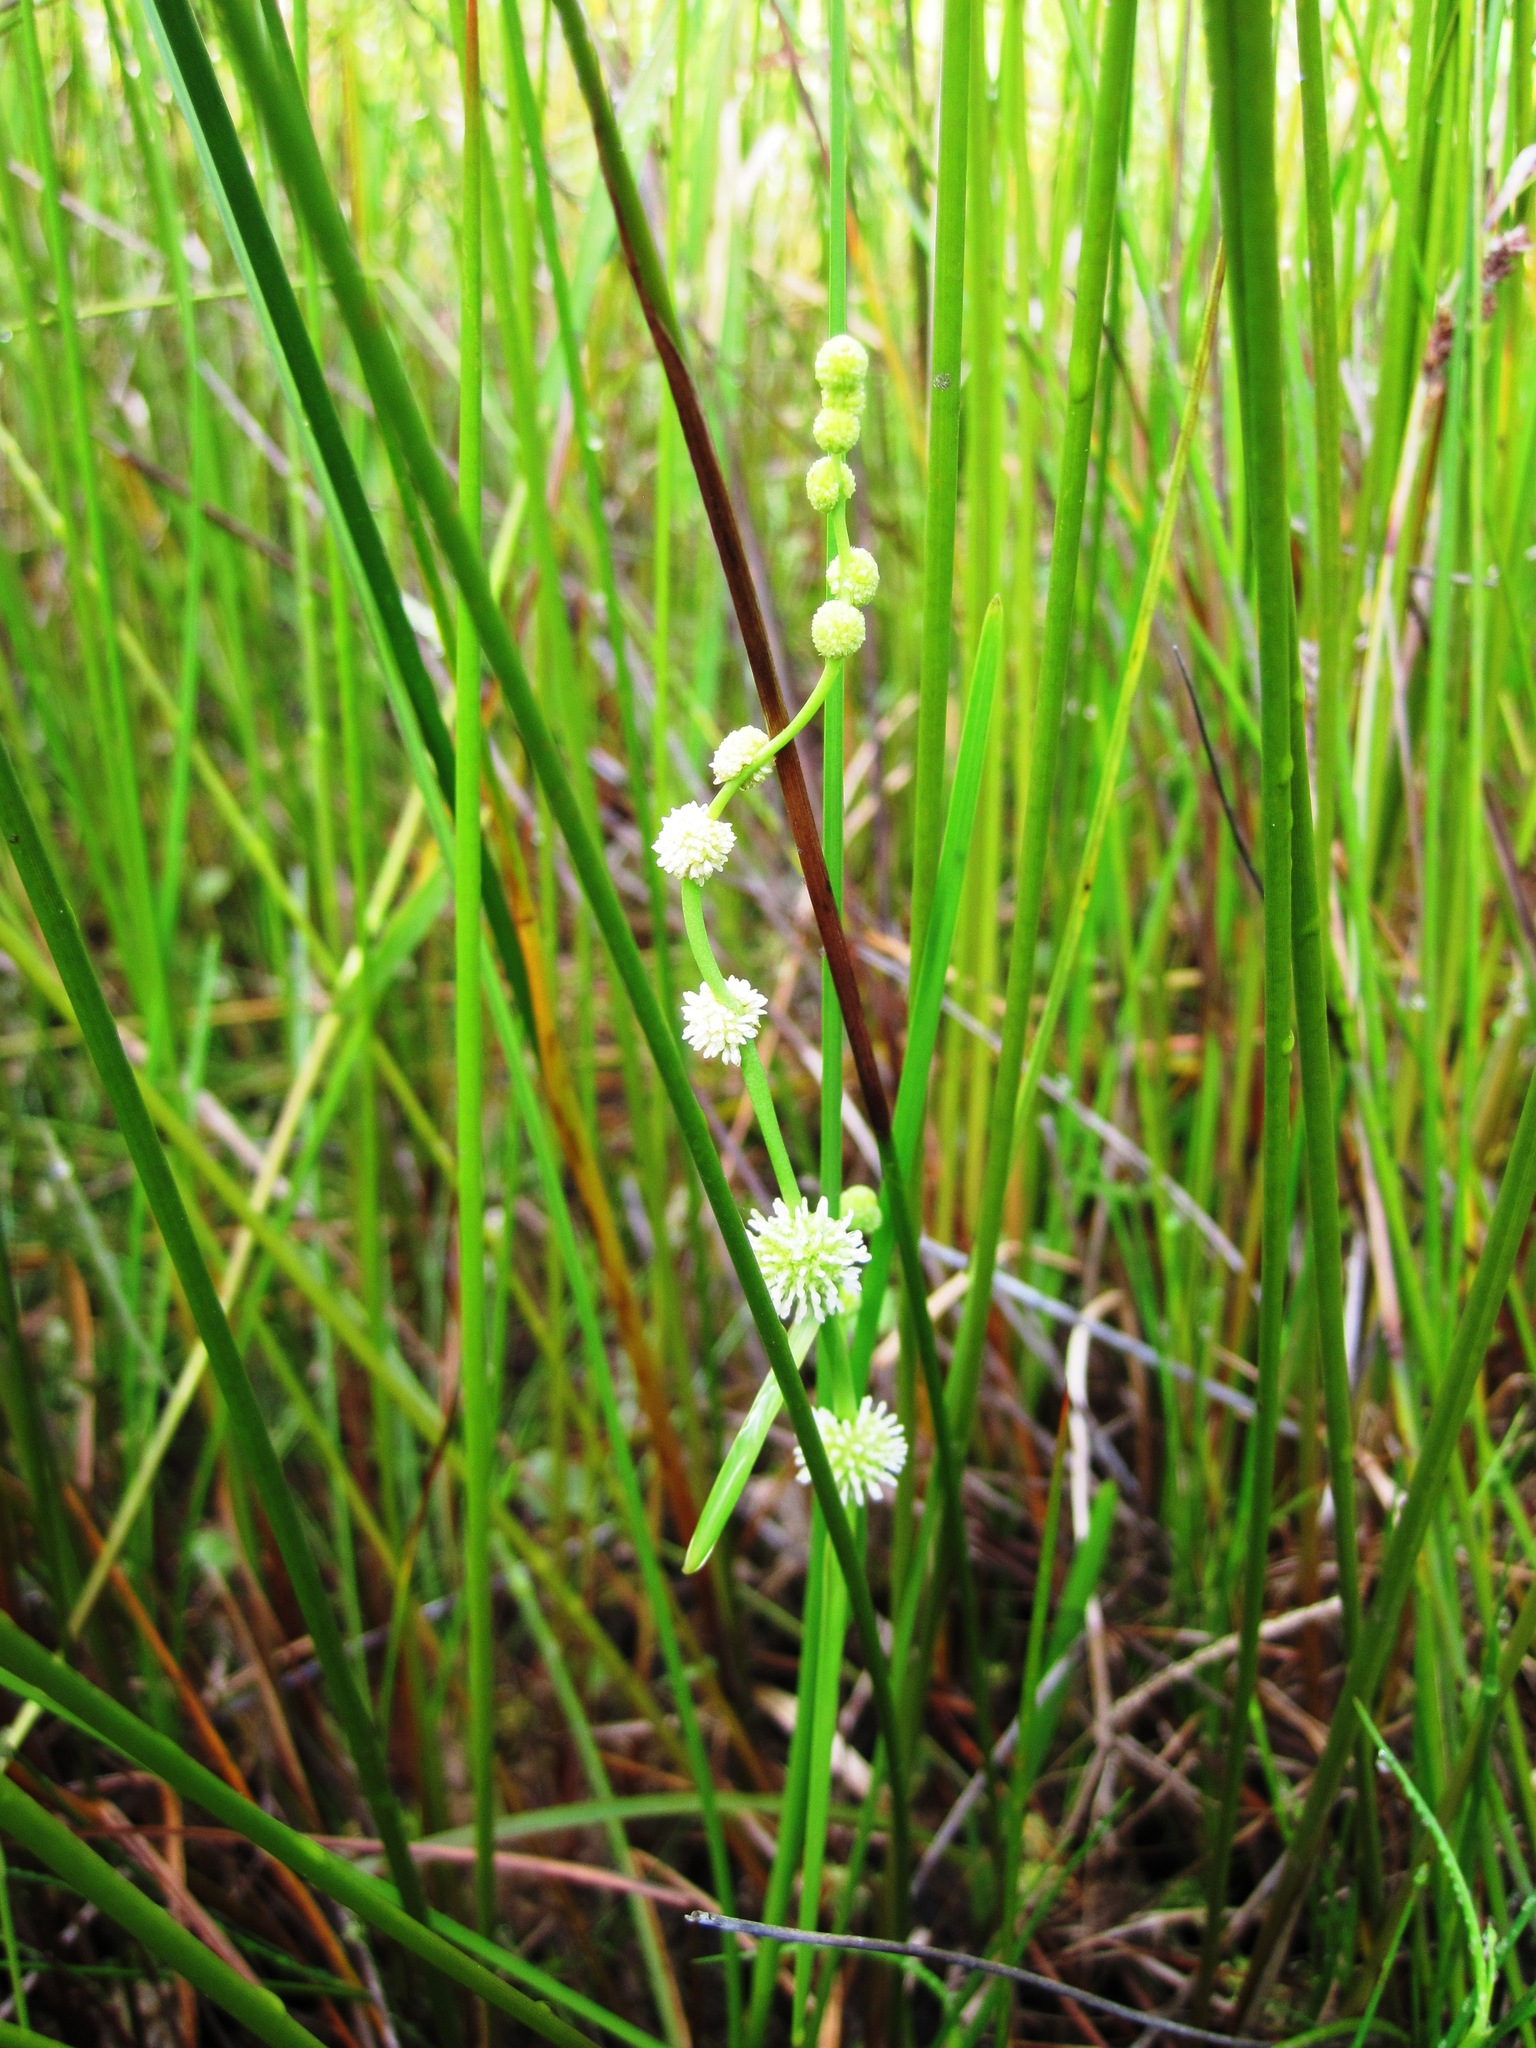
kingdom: Plantae
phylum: Tracheophyta
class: Liliopsida
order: Poales
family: Typhaceae
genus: Sparganium
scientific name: Sparganium subglobosum
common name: Burr­-reed
